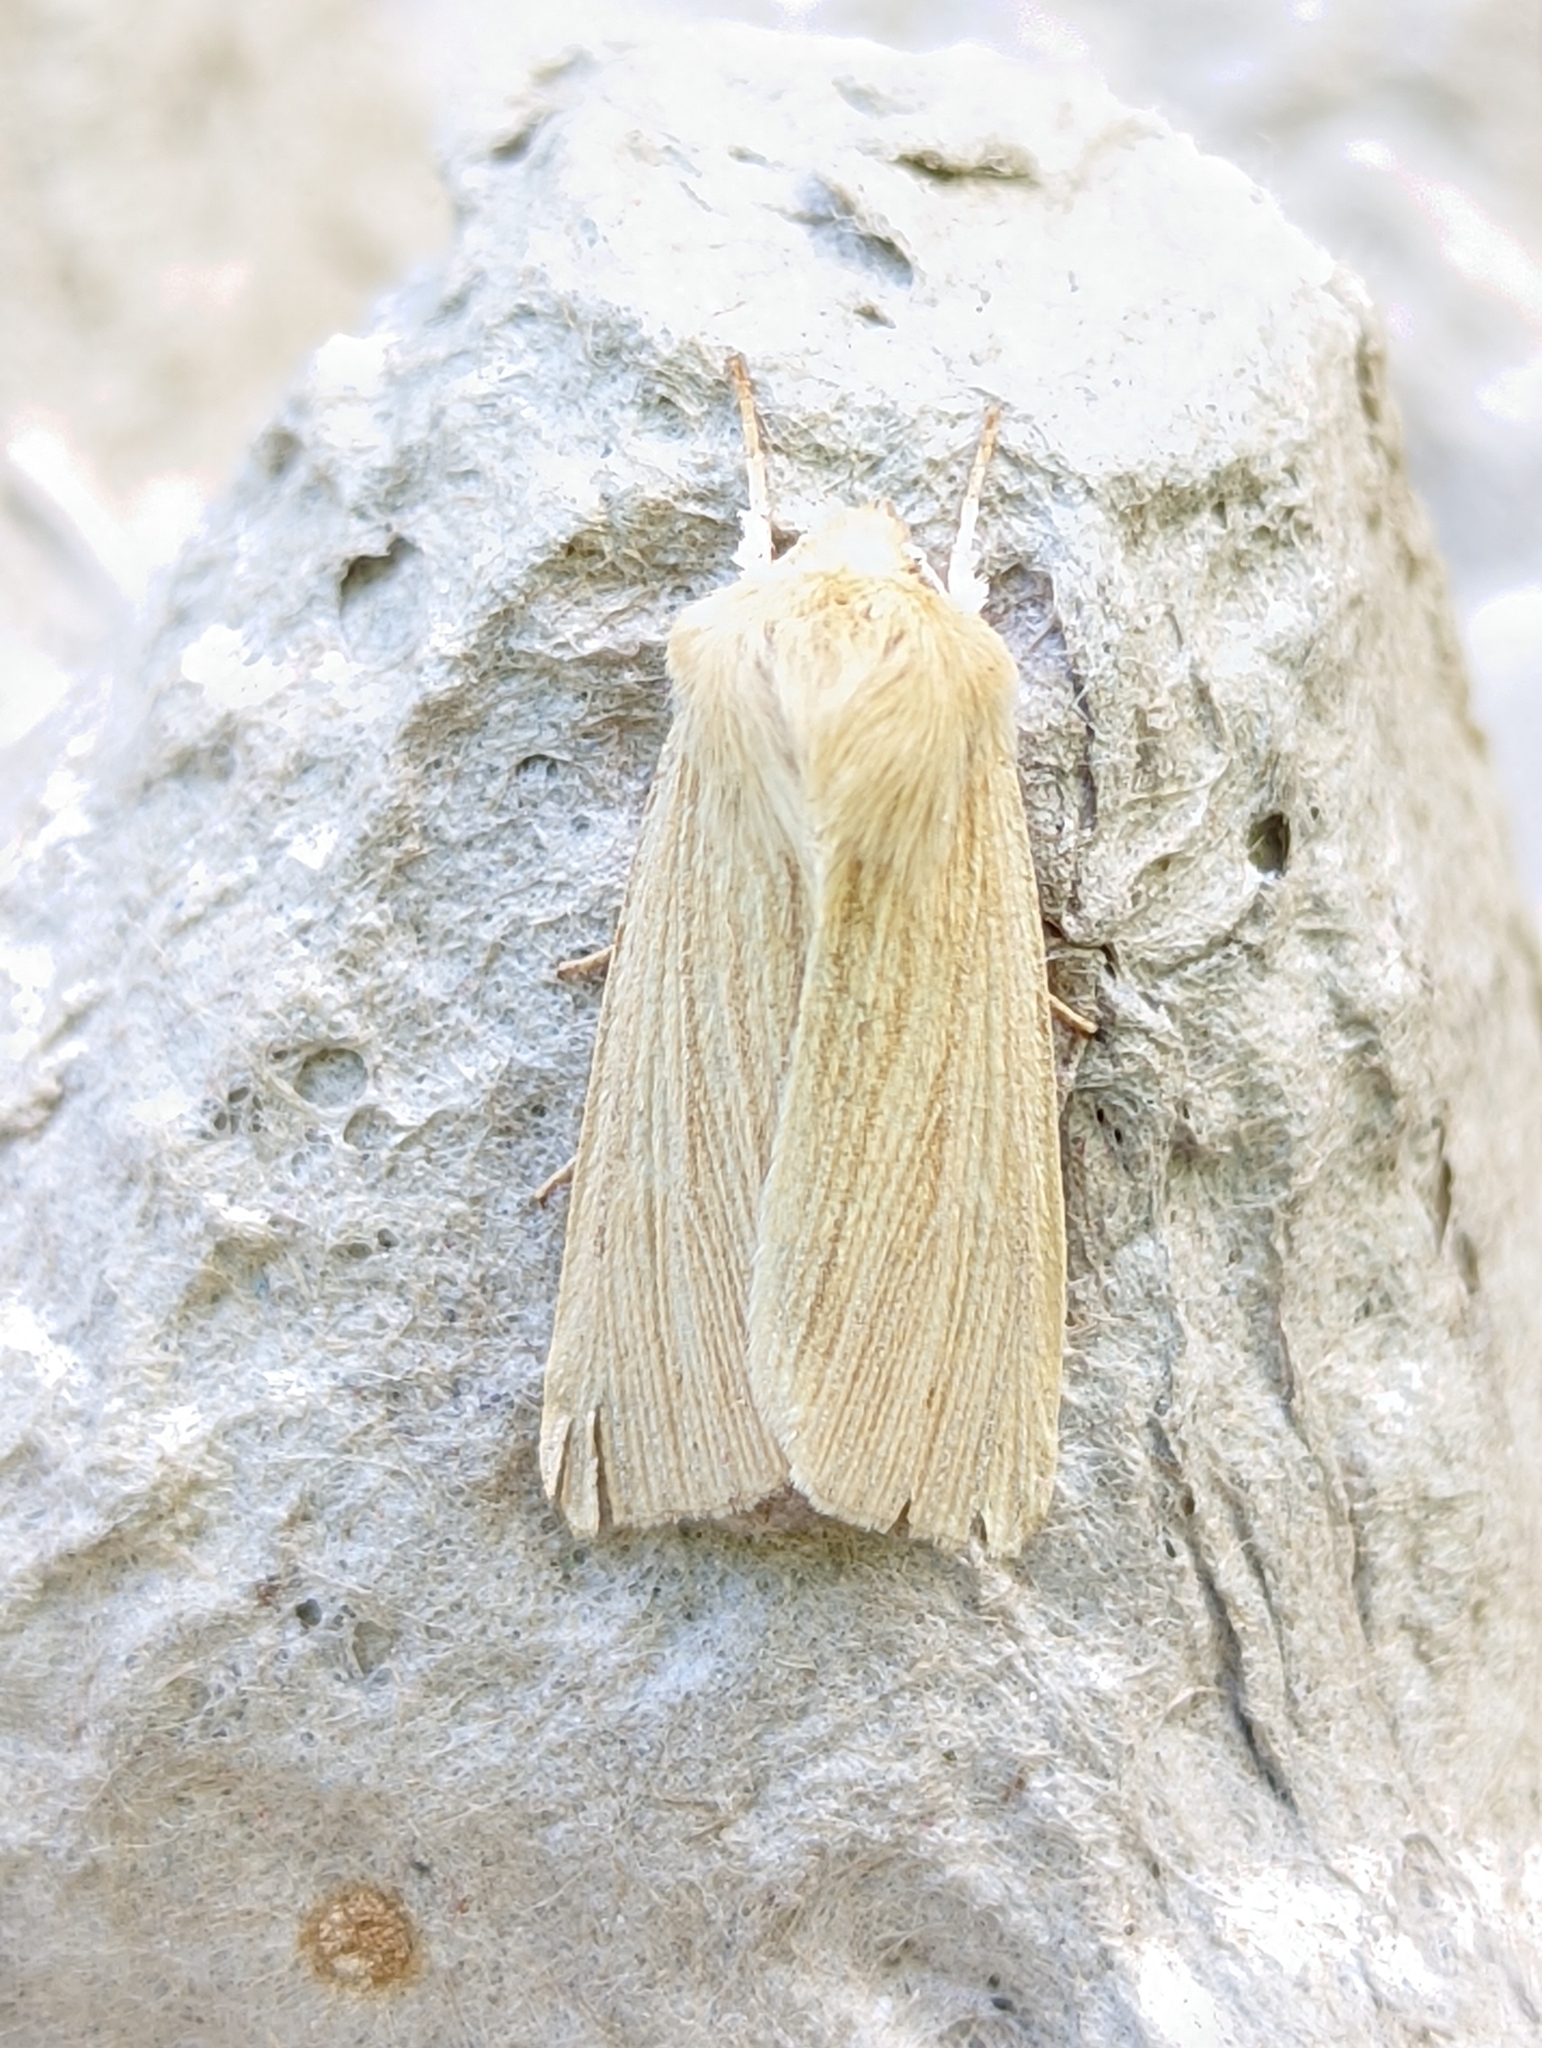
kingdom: Animalia
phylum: Arthropoda
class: Insecta
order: Lepidoptera
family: Noctuidae
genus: Mythimna
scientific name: Mythimna pallens
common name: Common wainscot
